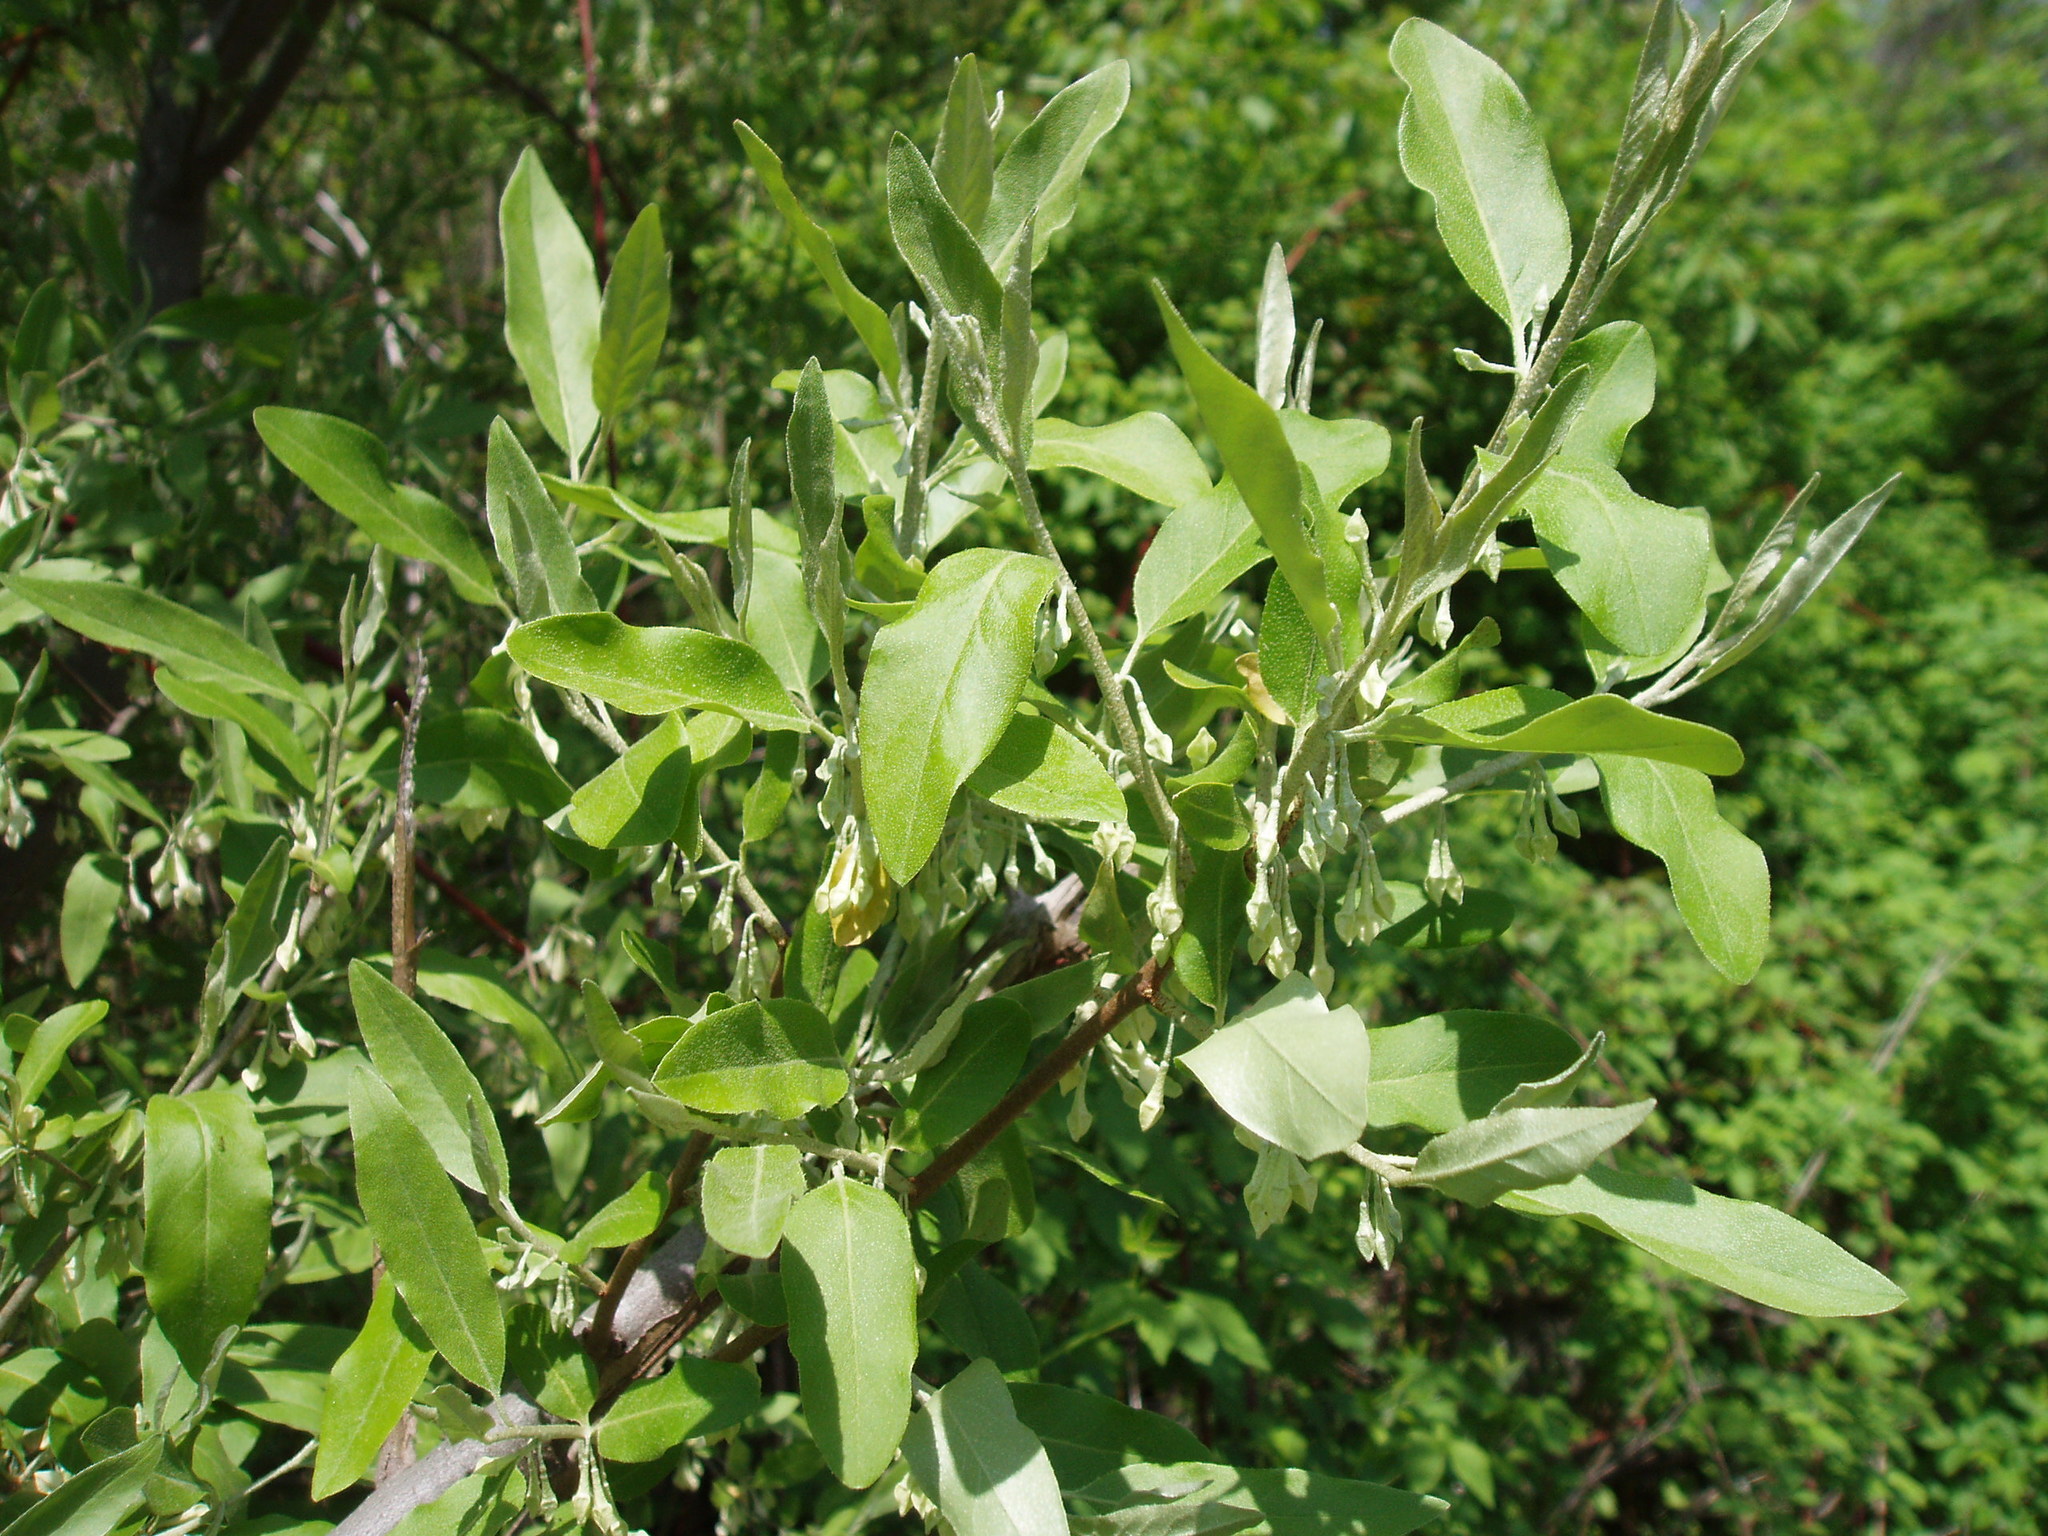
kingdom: Plantae
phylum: Tracheophyta
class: Magnoliopsida
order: Rosales
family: Elaeagnaceae
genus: Elaeagnus
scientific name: Elaeagnus umbellata
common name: Autumn olive
